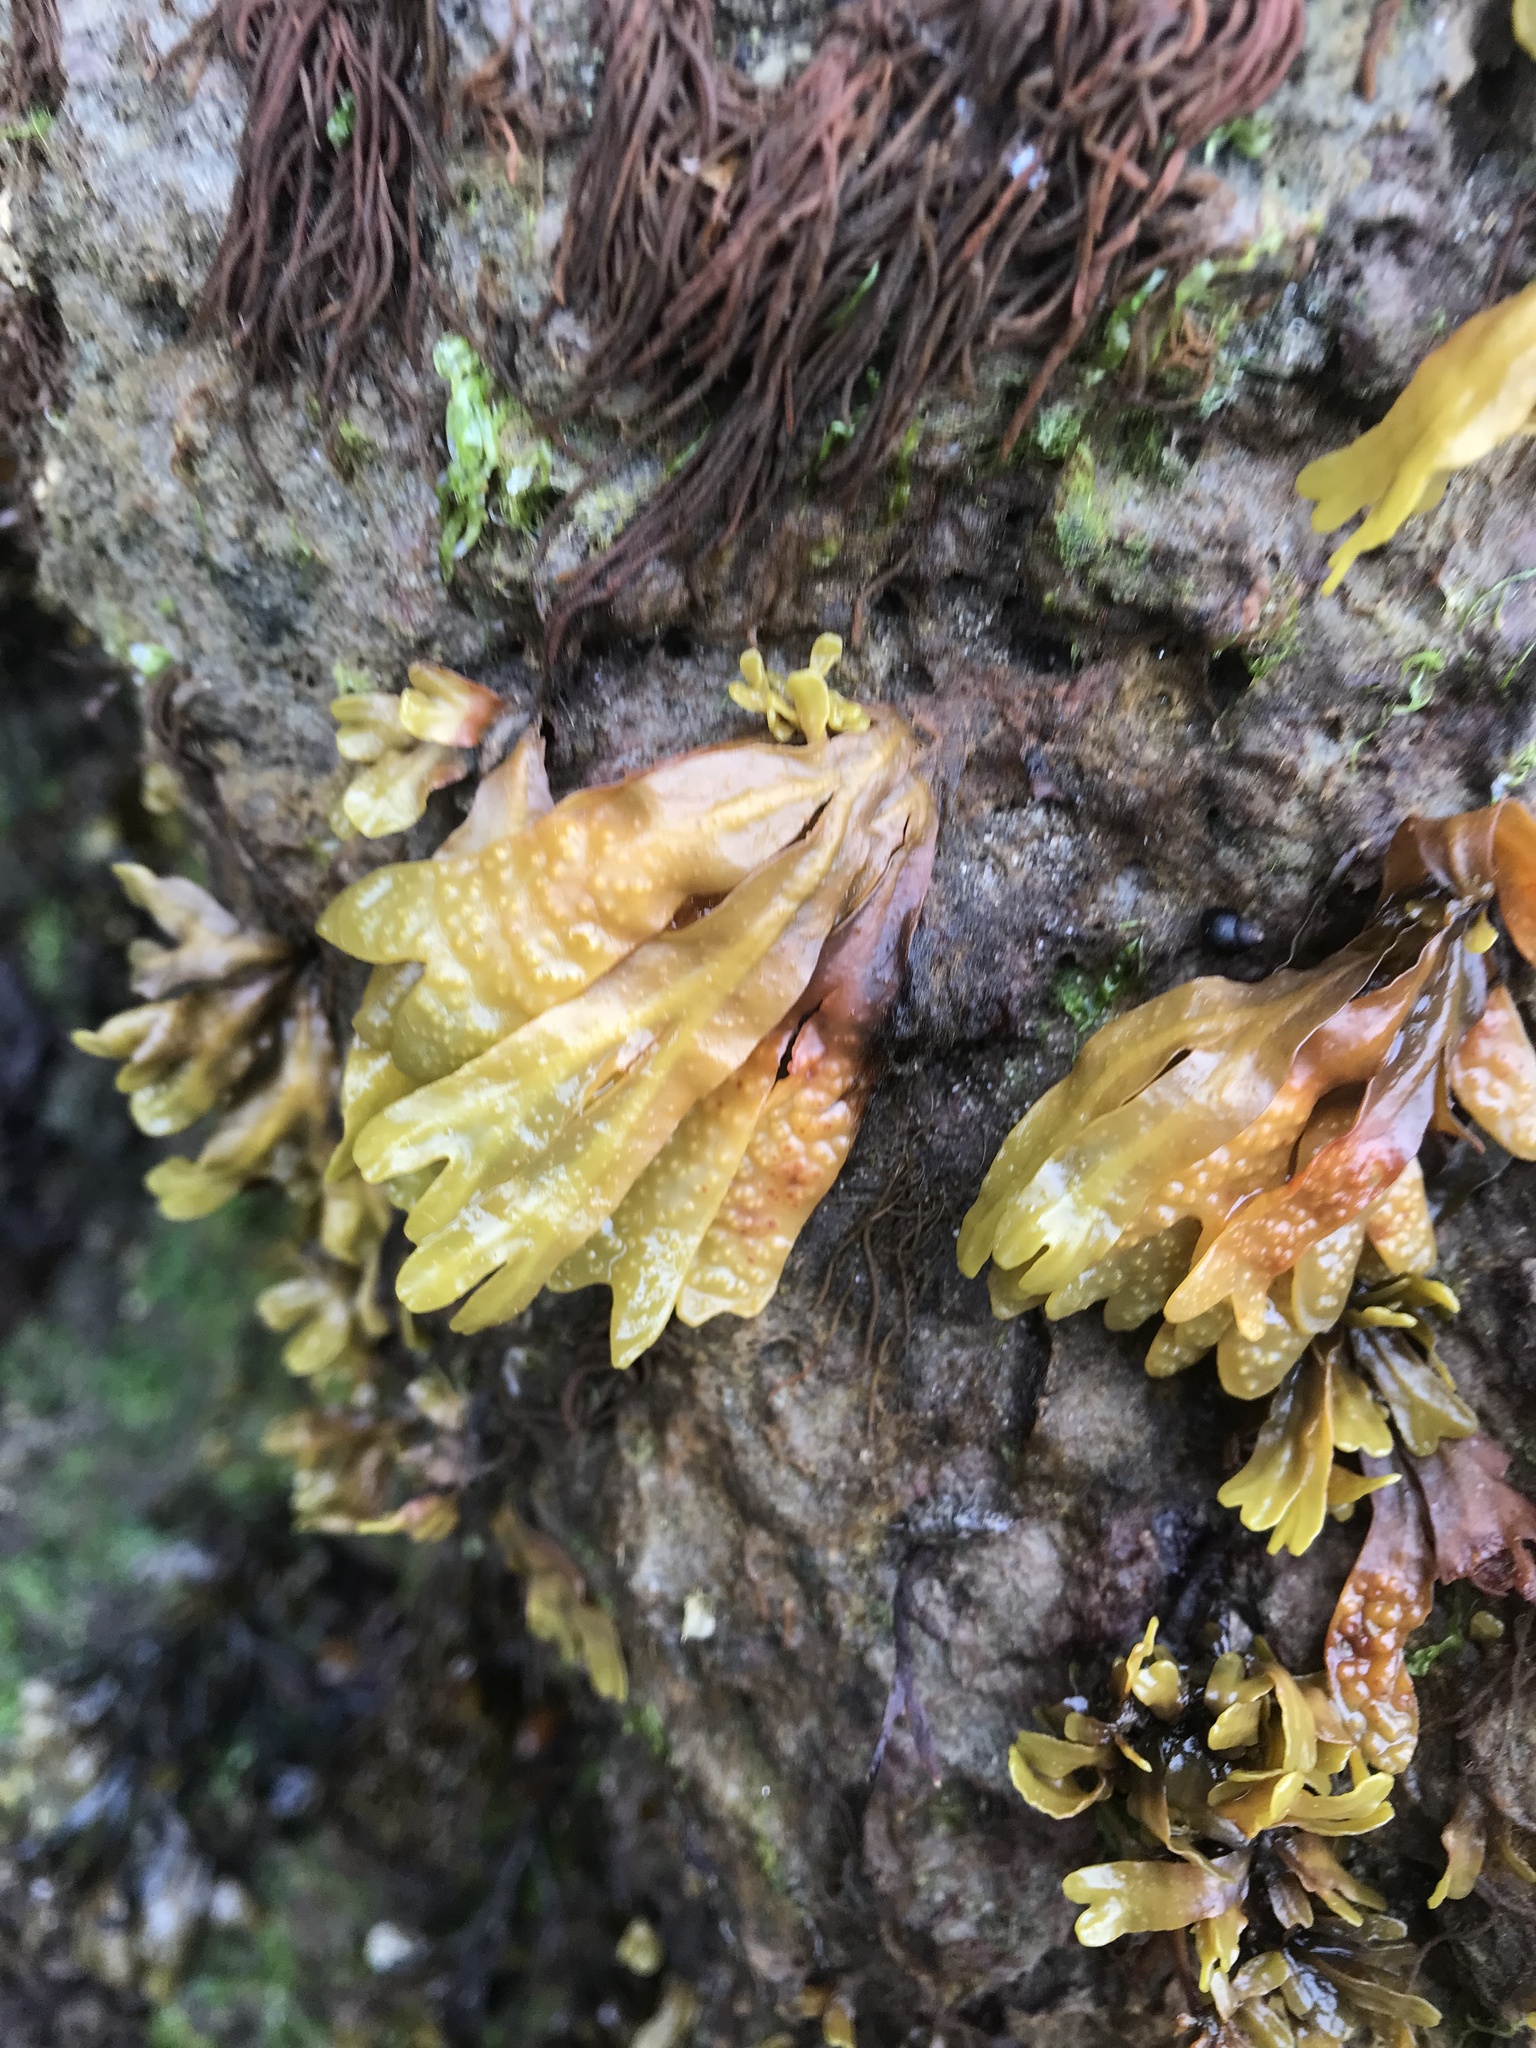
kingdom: Chromista
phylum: Ochrophyta
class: Phaeophyceae
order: Fucales
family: Fucaceae
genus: Fucus
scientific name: Fucus distichus
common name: Rockweed
